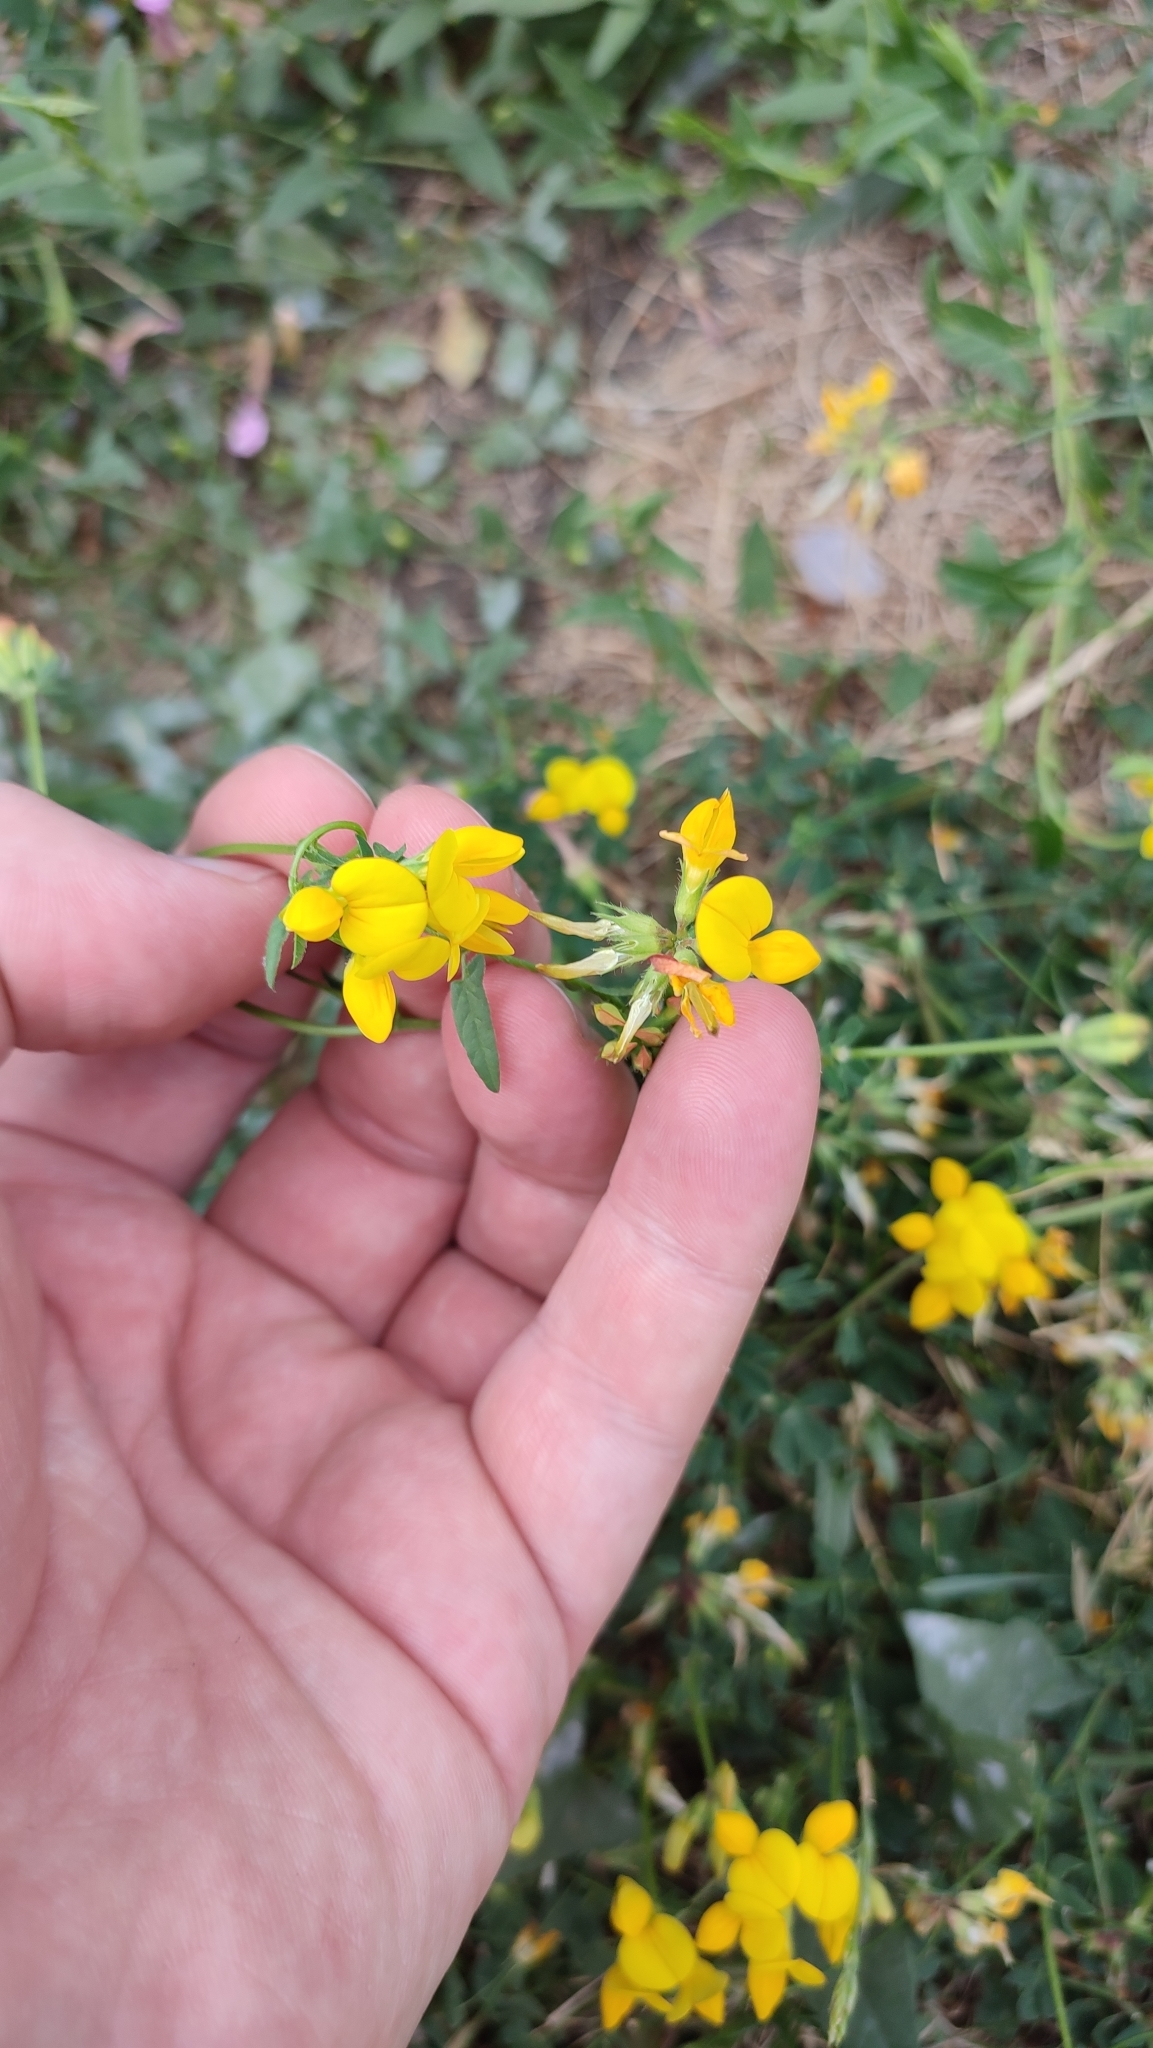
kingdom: Plantae
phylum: Tracheophyta
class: Magnoliopsida
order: Fabales
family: Fabaceae
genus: Lotus
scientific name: Lotus corniculatus
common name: Common bird's-foot-trefoil
